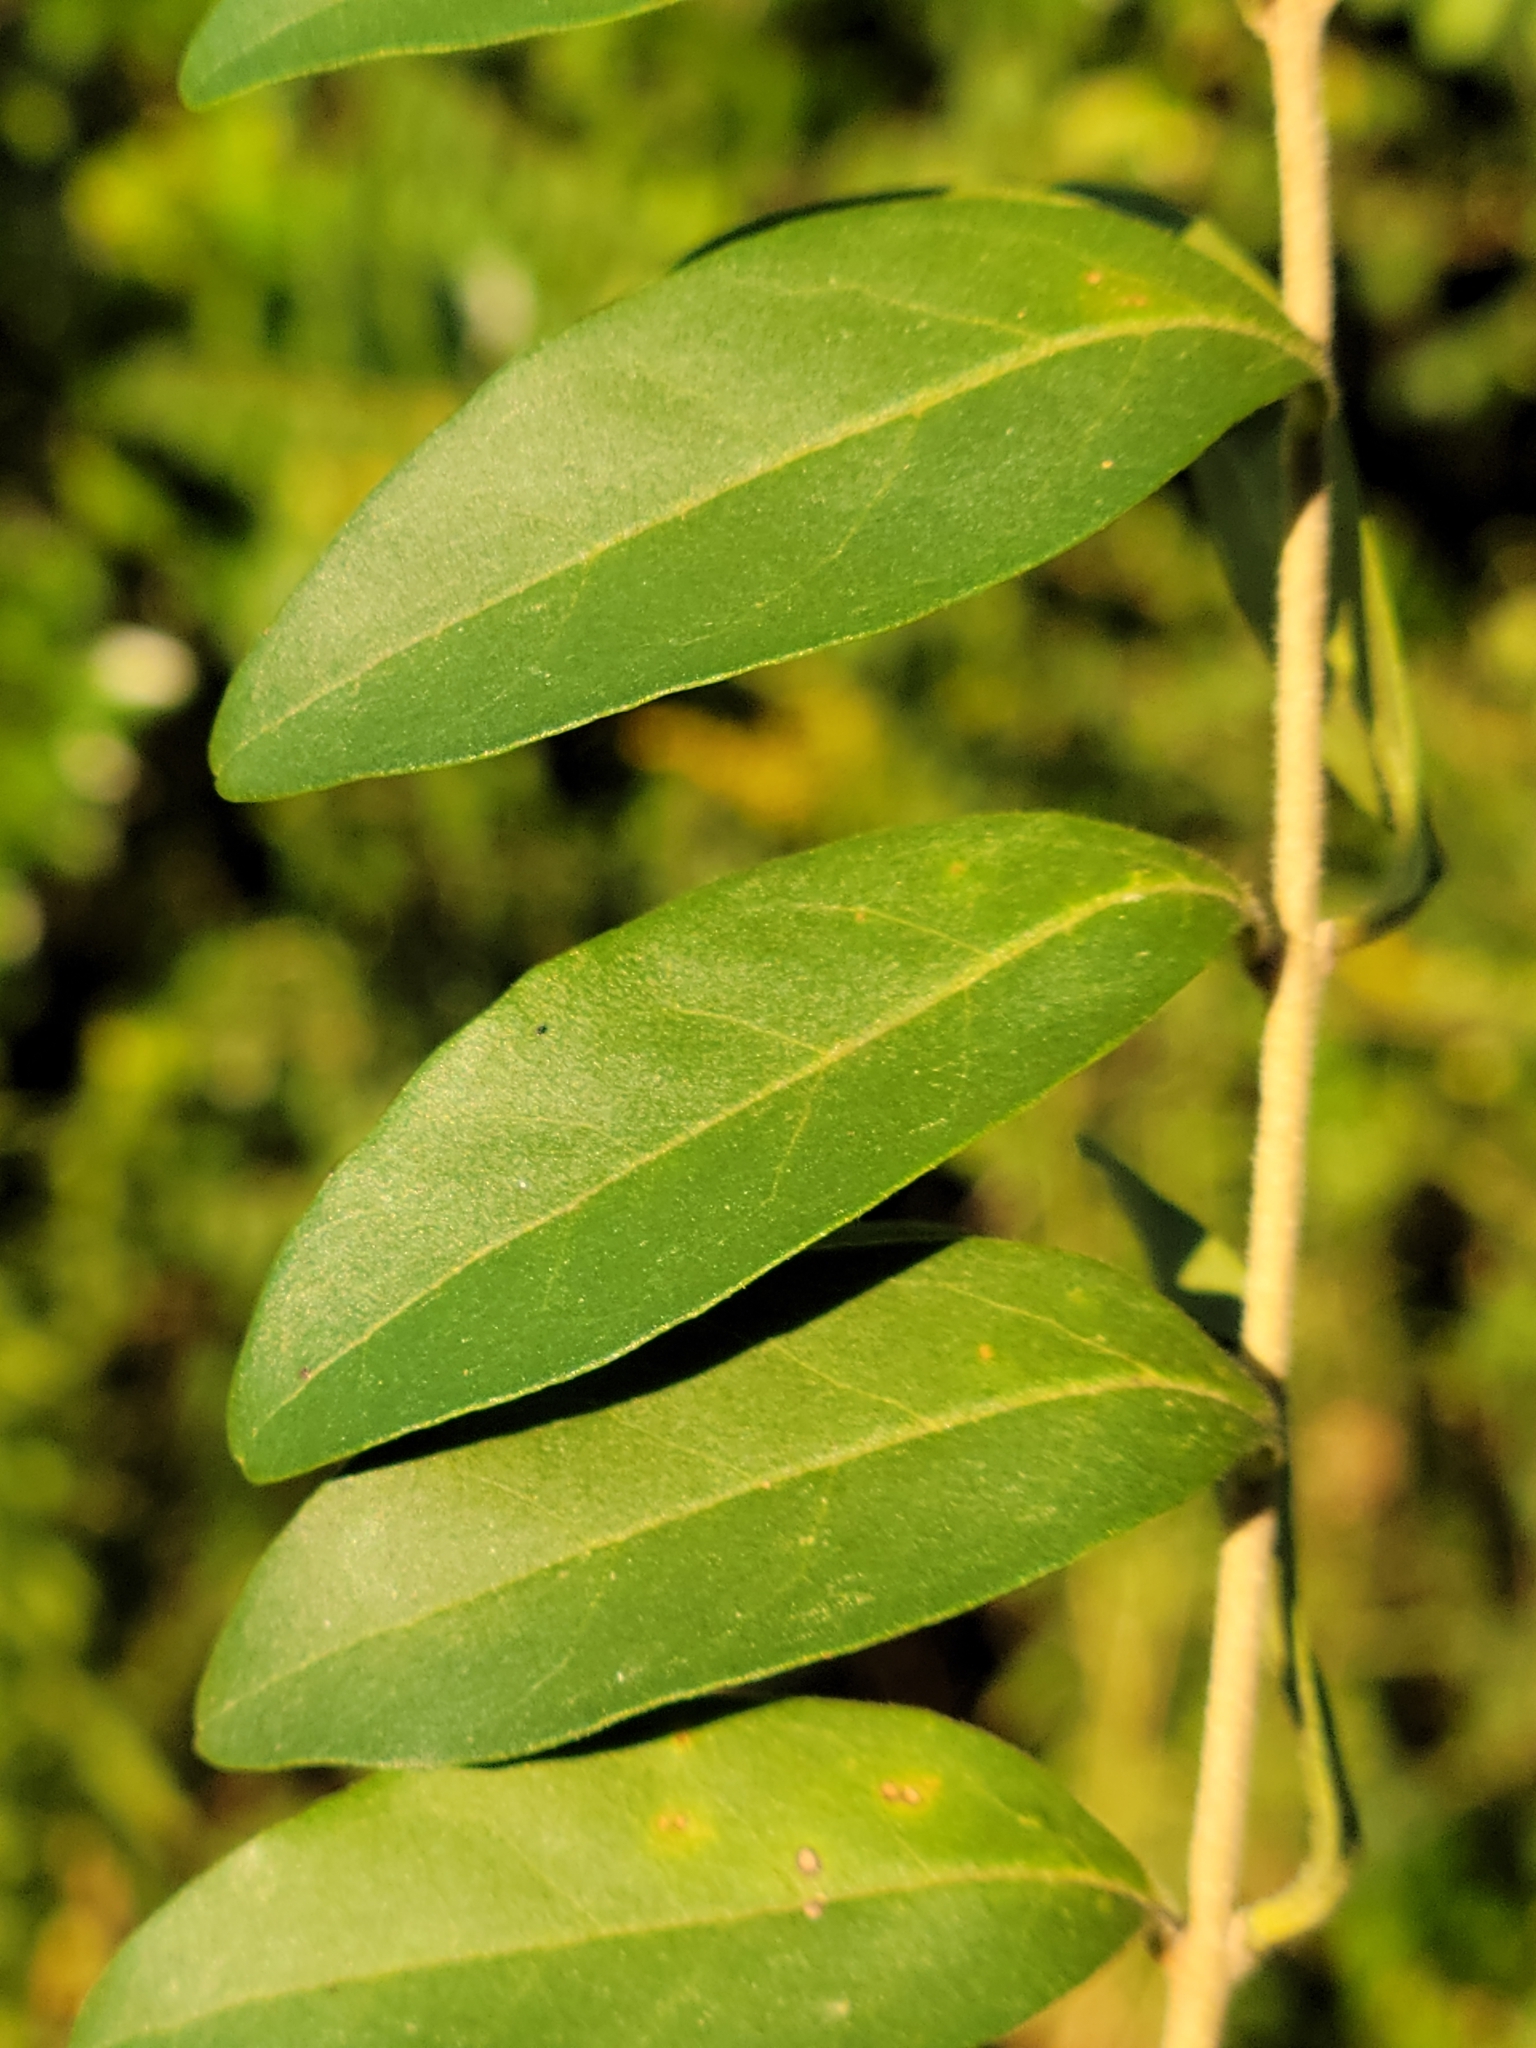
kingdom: Plantae
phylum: Tracheophyta
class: Magnoliopsida
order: Lamiales
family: Oleaceae
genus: Ligustrum
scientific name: Ligustrum sinense
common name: Chinese privet
